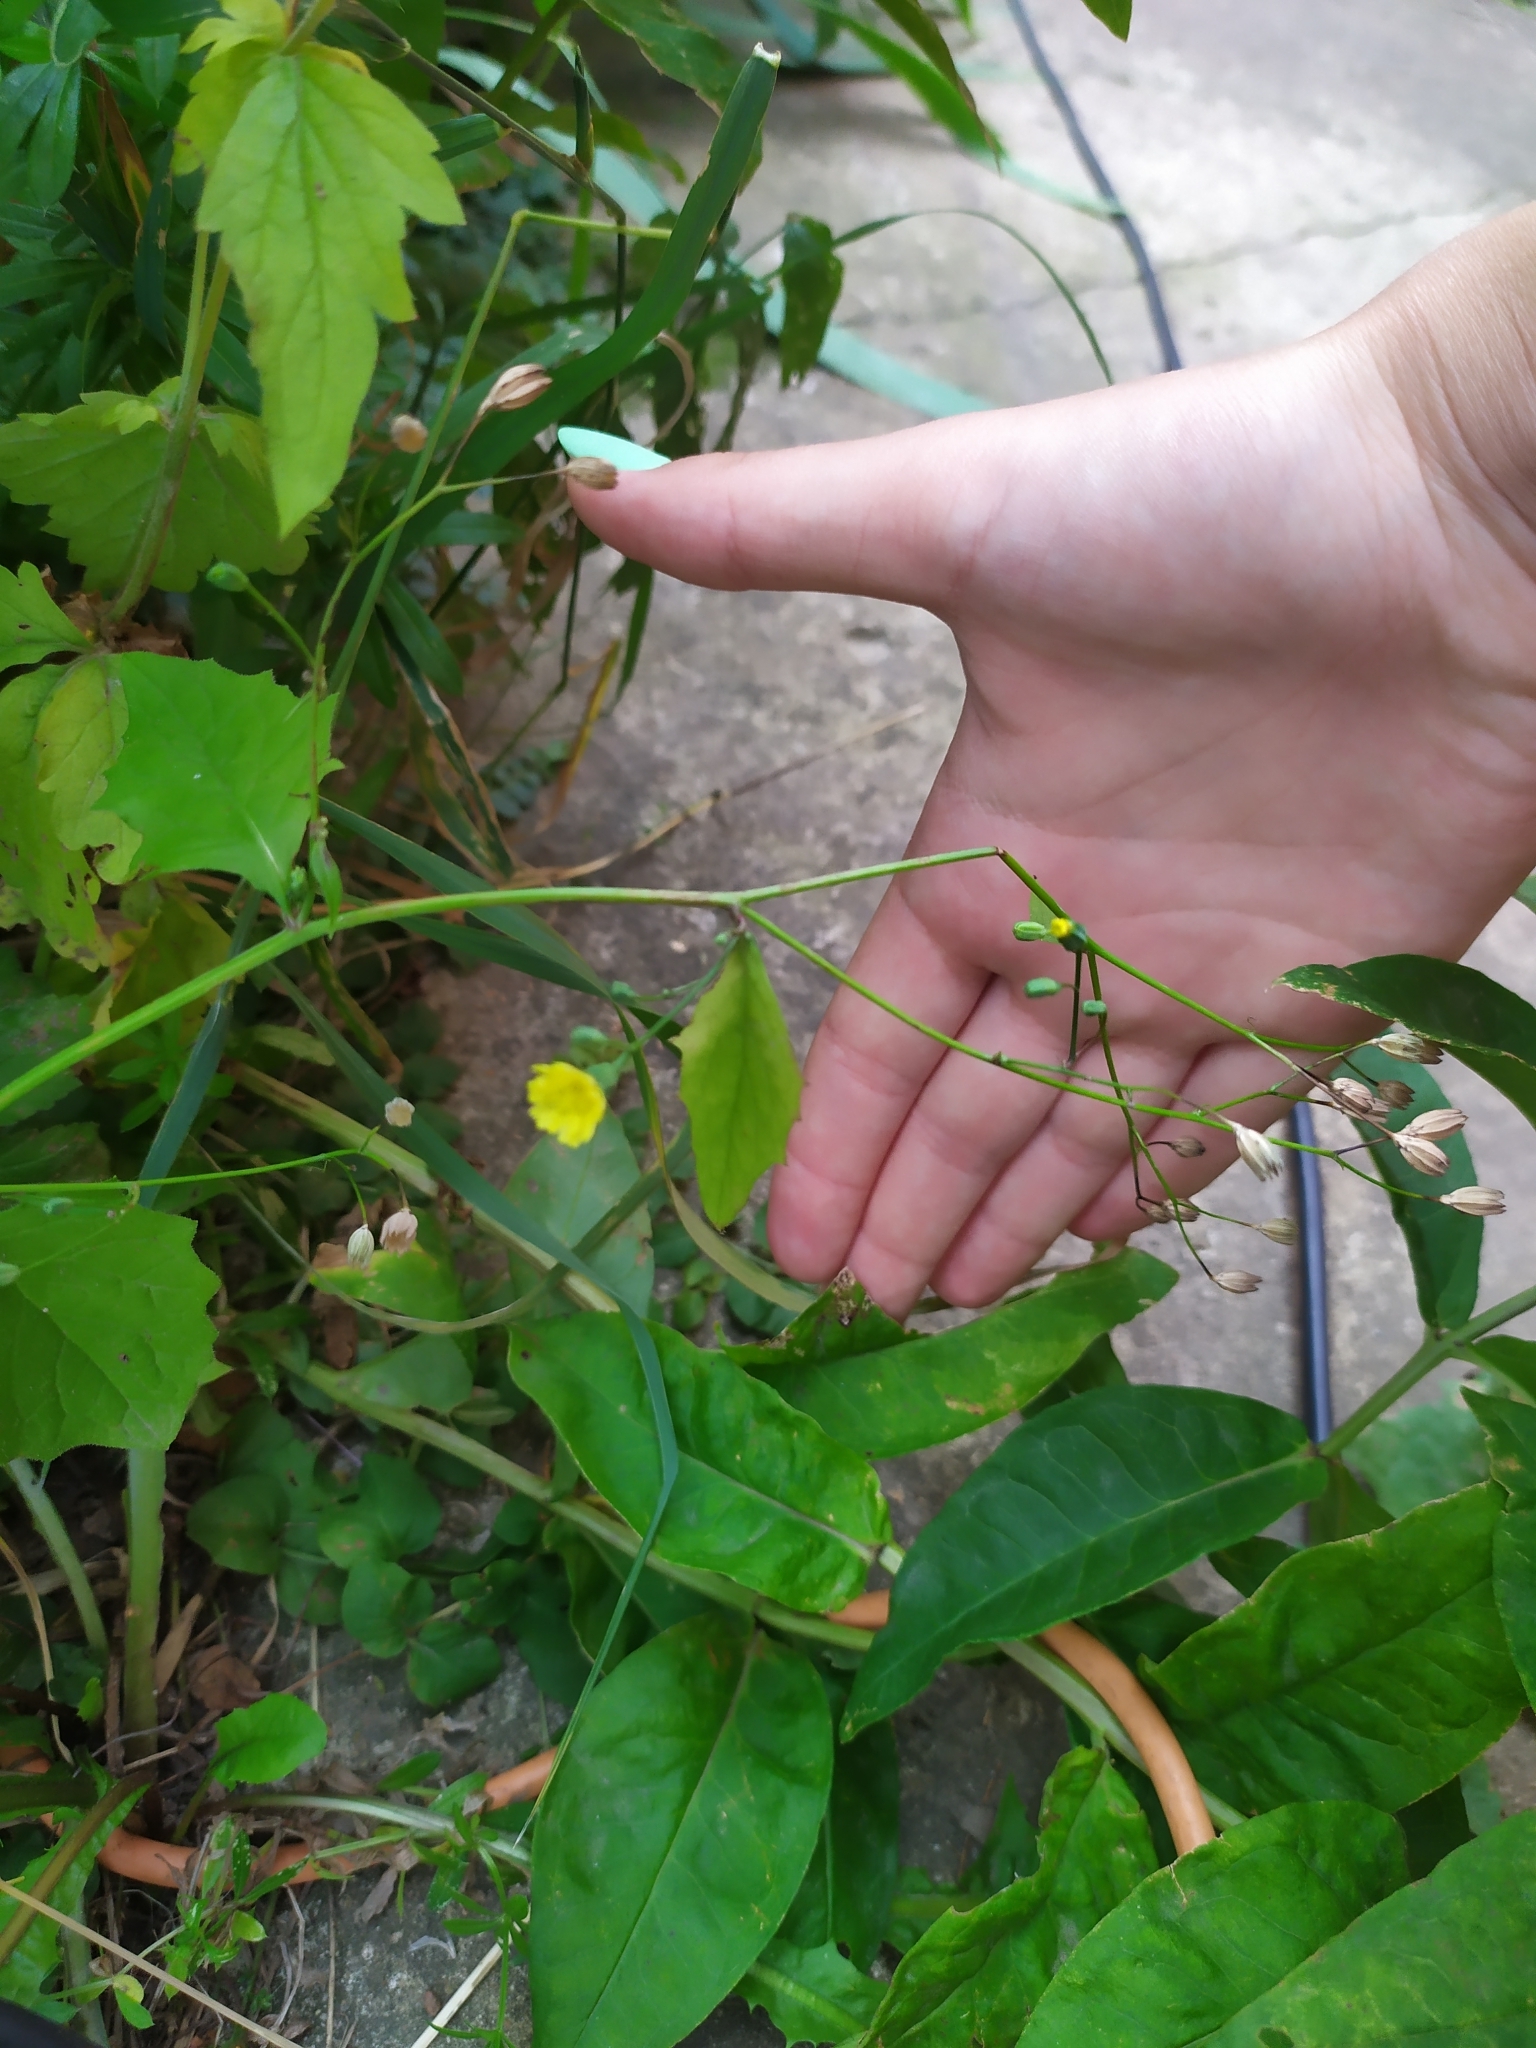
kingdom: Plantae
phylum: Tracheophyta
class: Magnoliopsida
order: Asterales
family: Asteraceae
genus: Lapsana
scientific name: Lapsana communis
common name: Nipplewort
